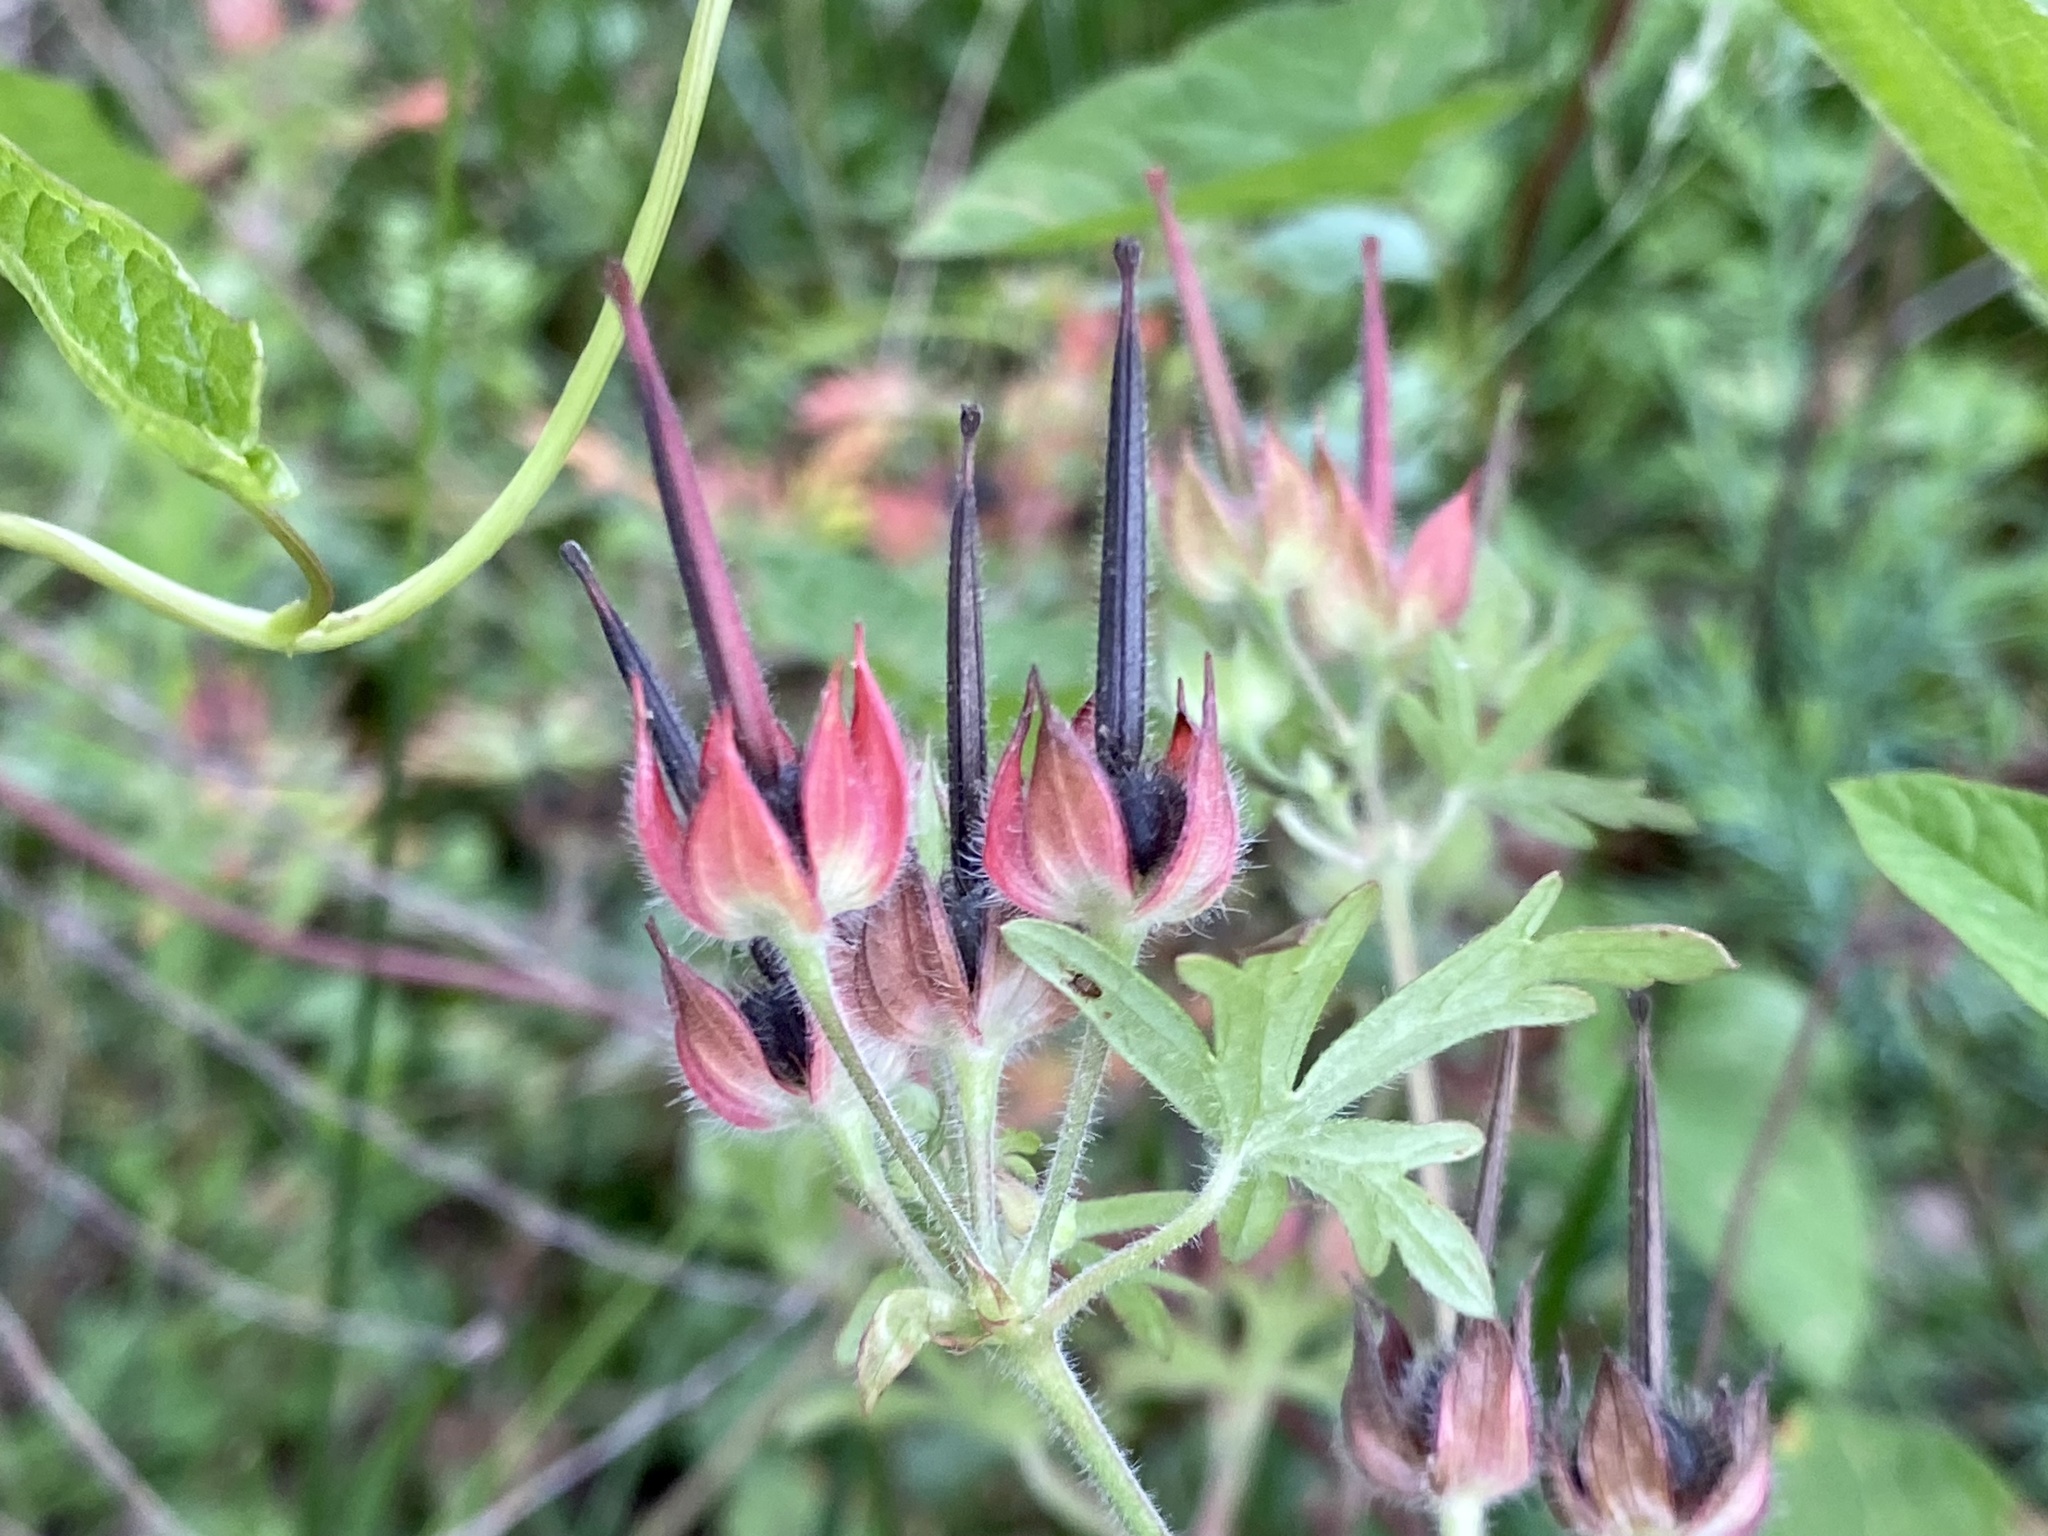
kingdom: Plantae
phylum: Tracheophyta
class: Magnoliopsida
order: Geraniales
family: Geraniaceae
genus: Geranium
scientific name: Geranium carolinianum
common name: Carolina crane's-bill
